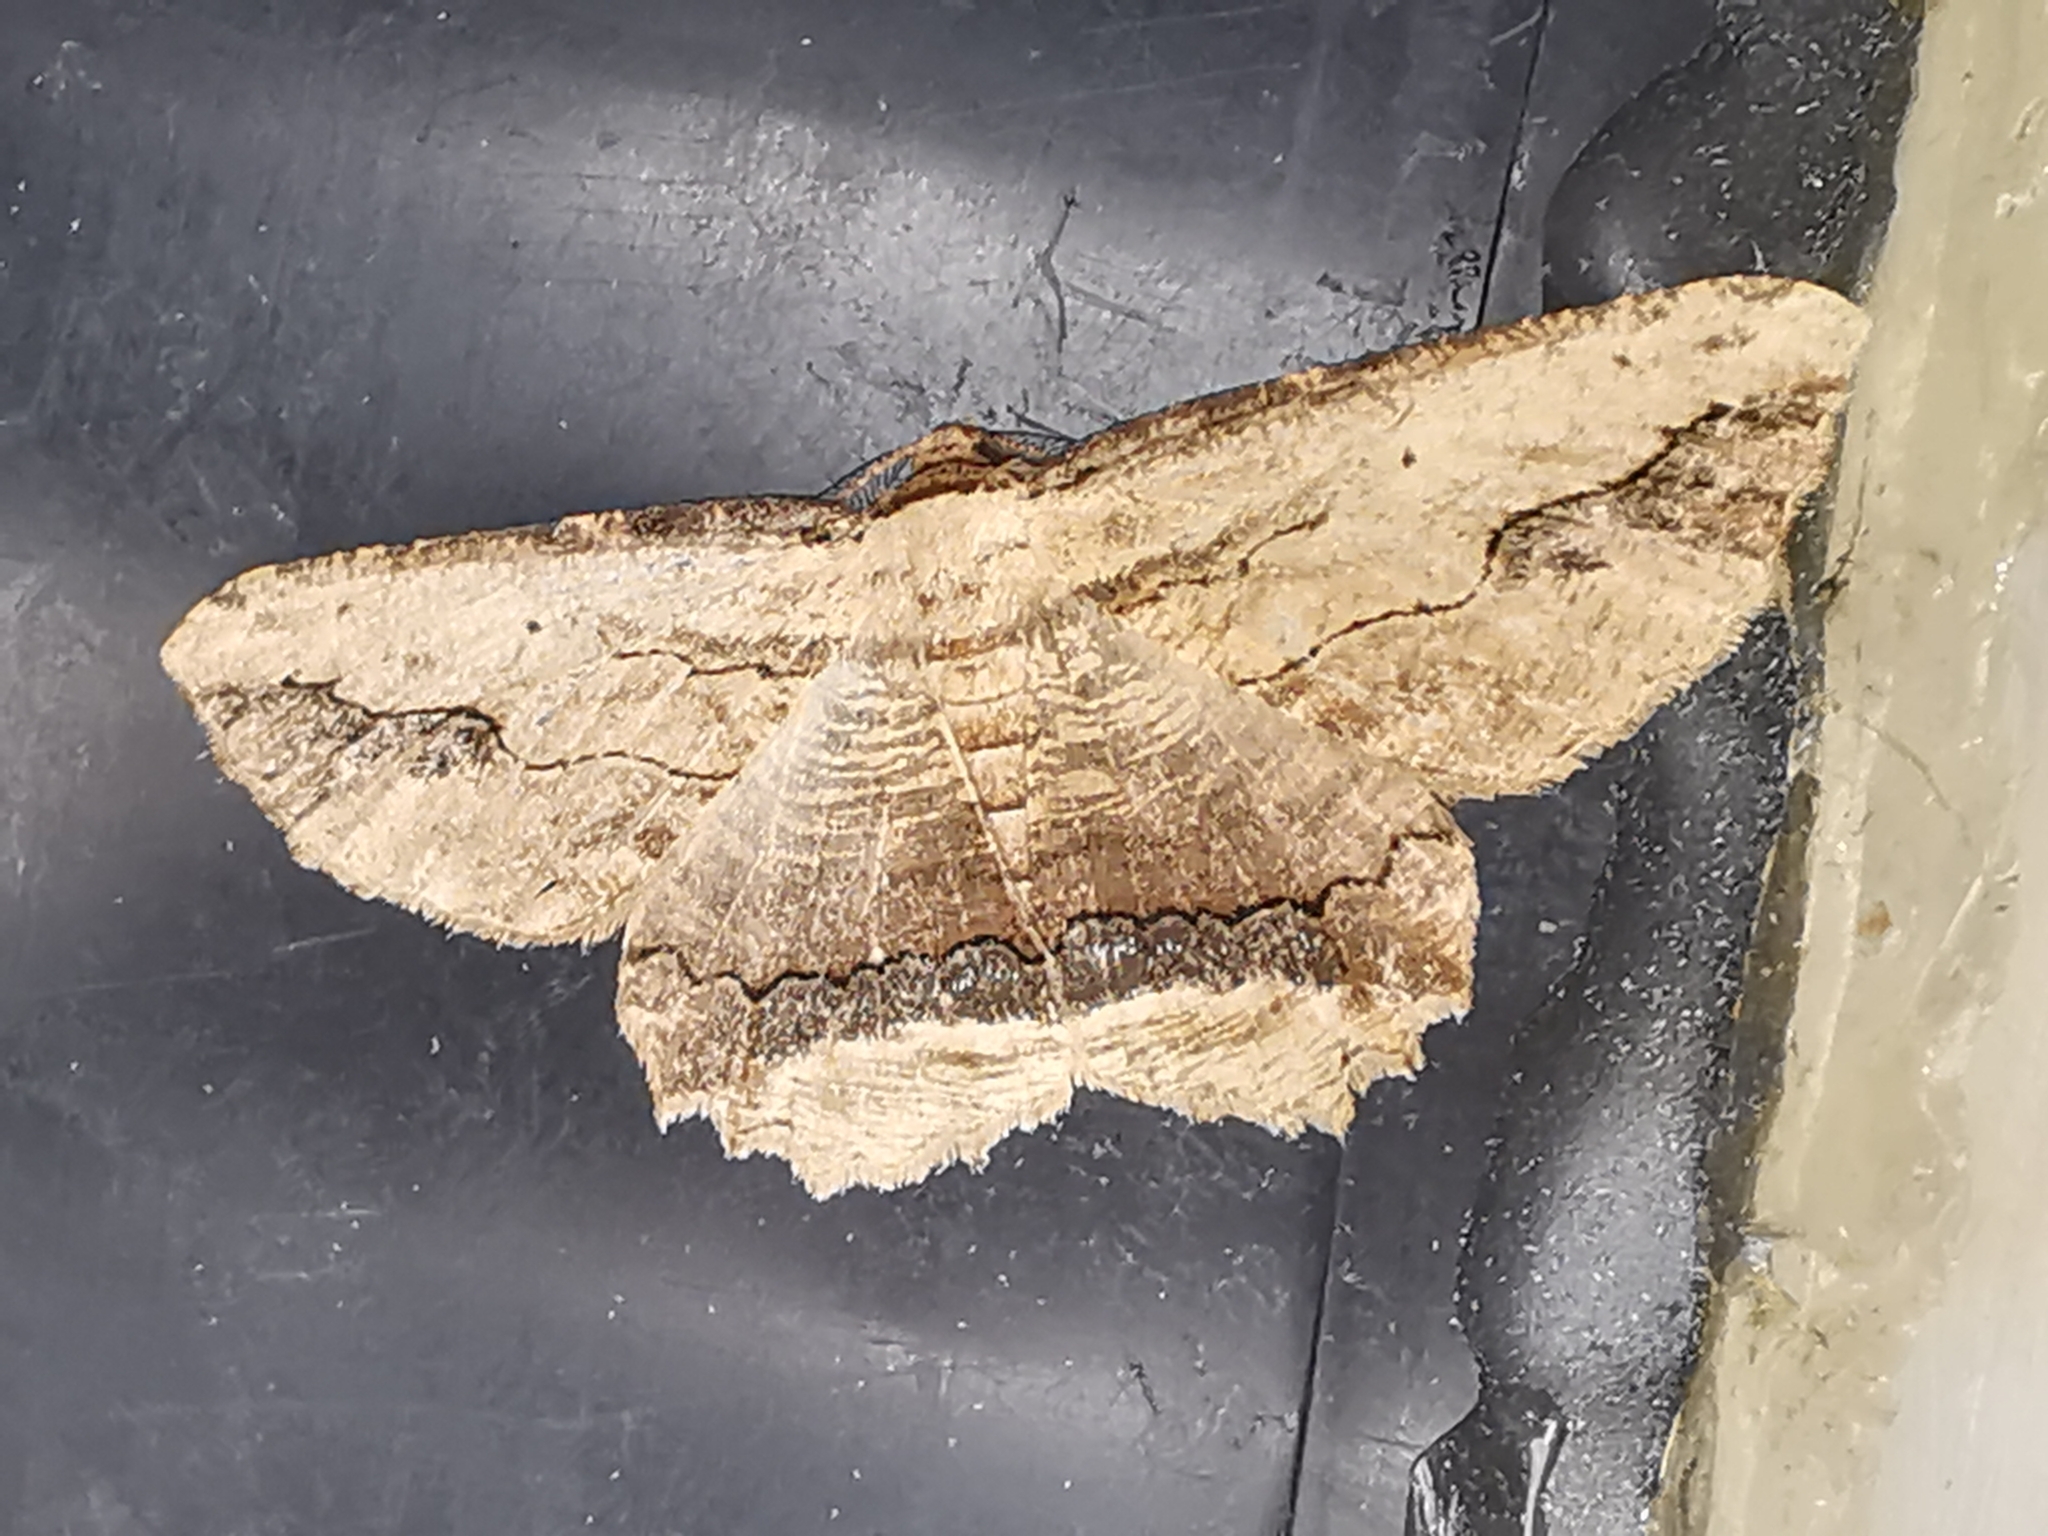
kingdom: Animalia
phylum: Arthropoda
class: Insecta
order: Lepidoptera
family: Geometridae
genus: Menophra
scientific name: Menophra abruptaria
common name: Waved umber
